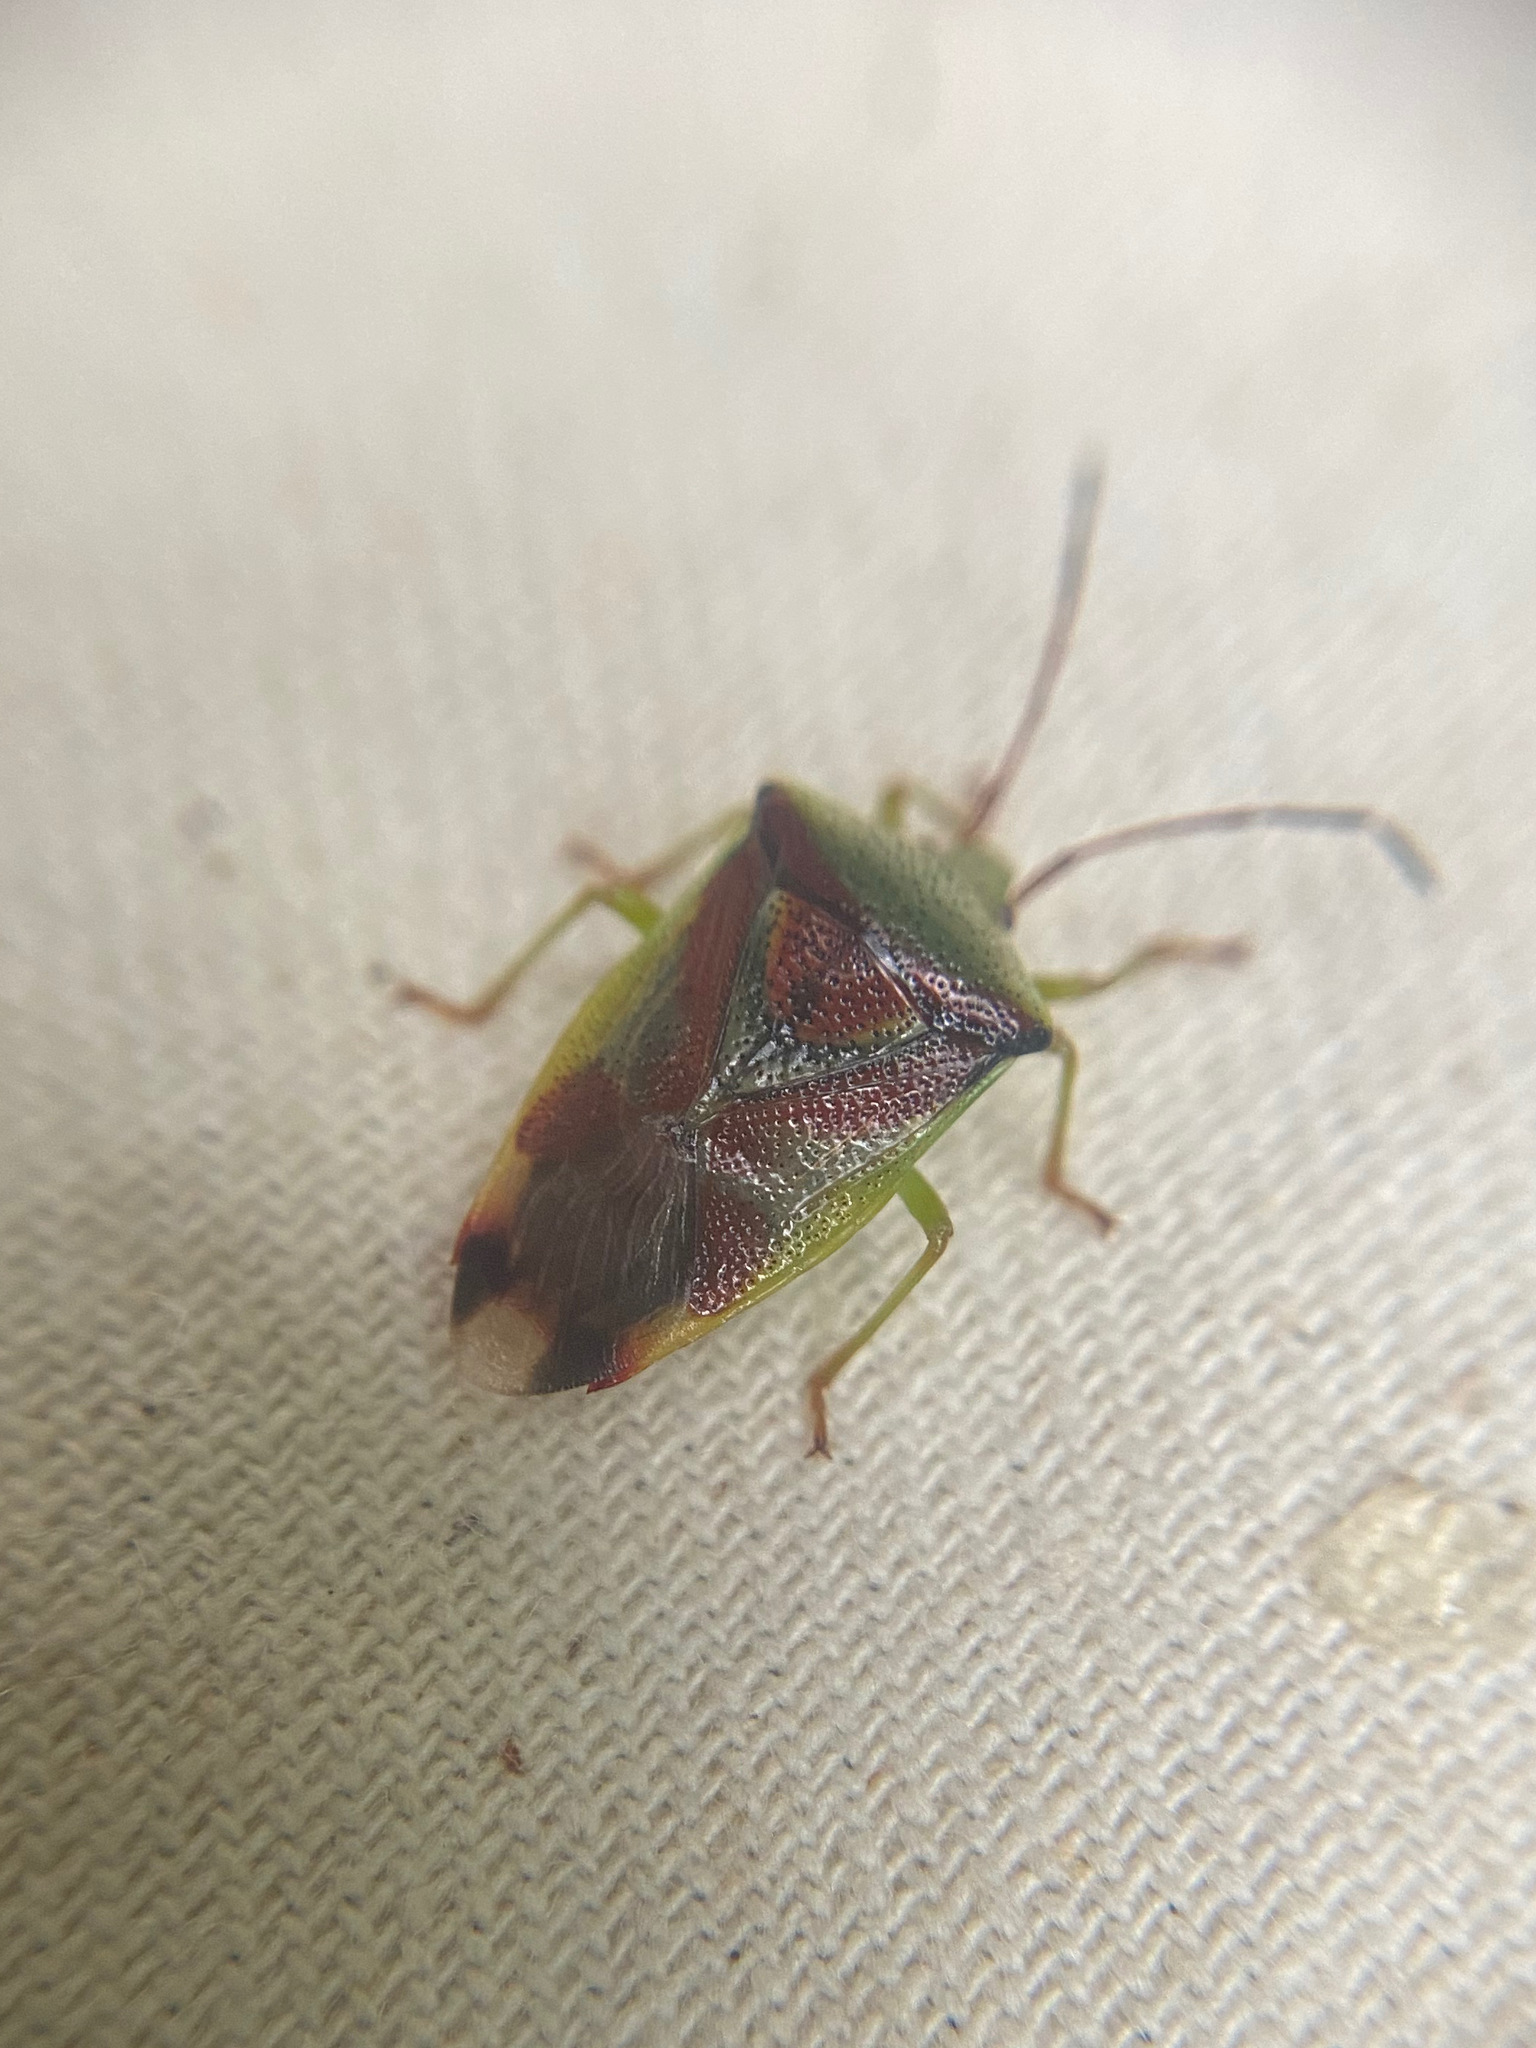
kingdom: Animalia
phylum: Arthropoda
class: Insecta
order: Hemiptera
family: Acanthosomatidae
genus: Elasmostethus
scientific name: Elasmostethus cruciatus
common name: Red-cross shield bug
